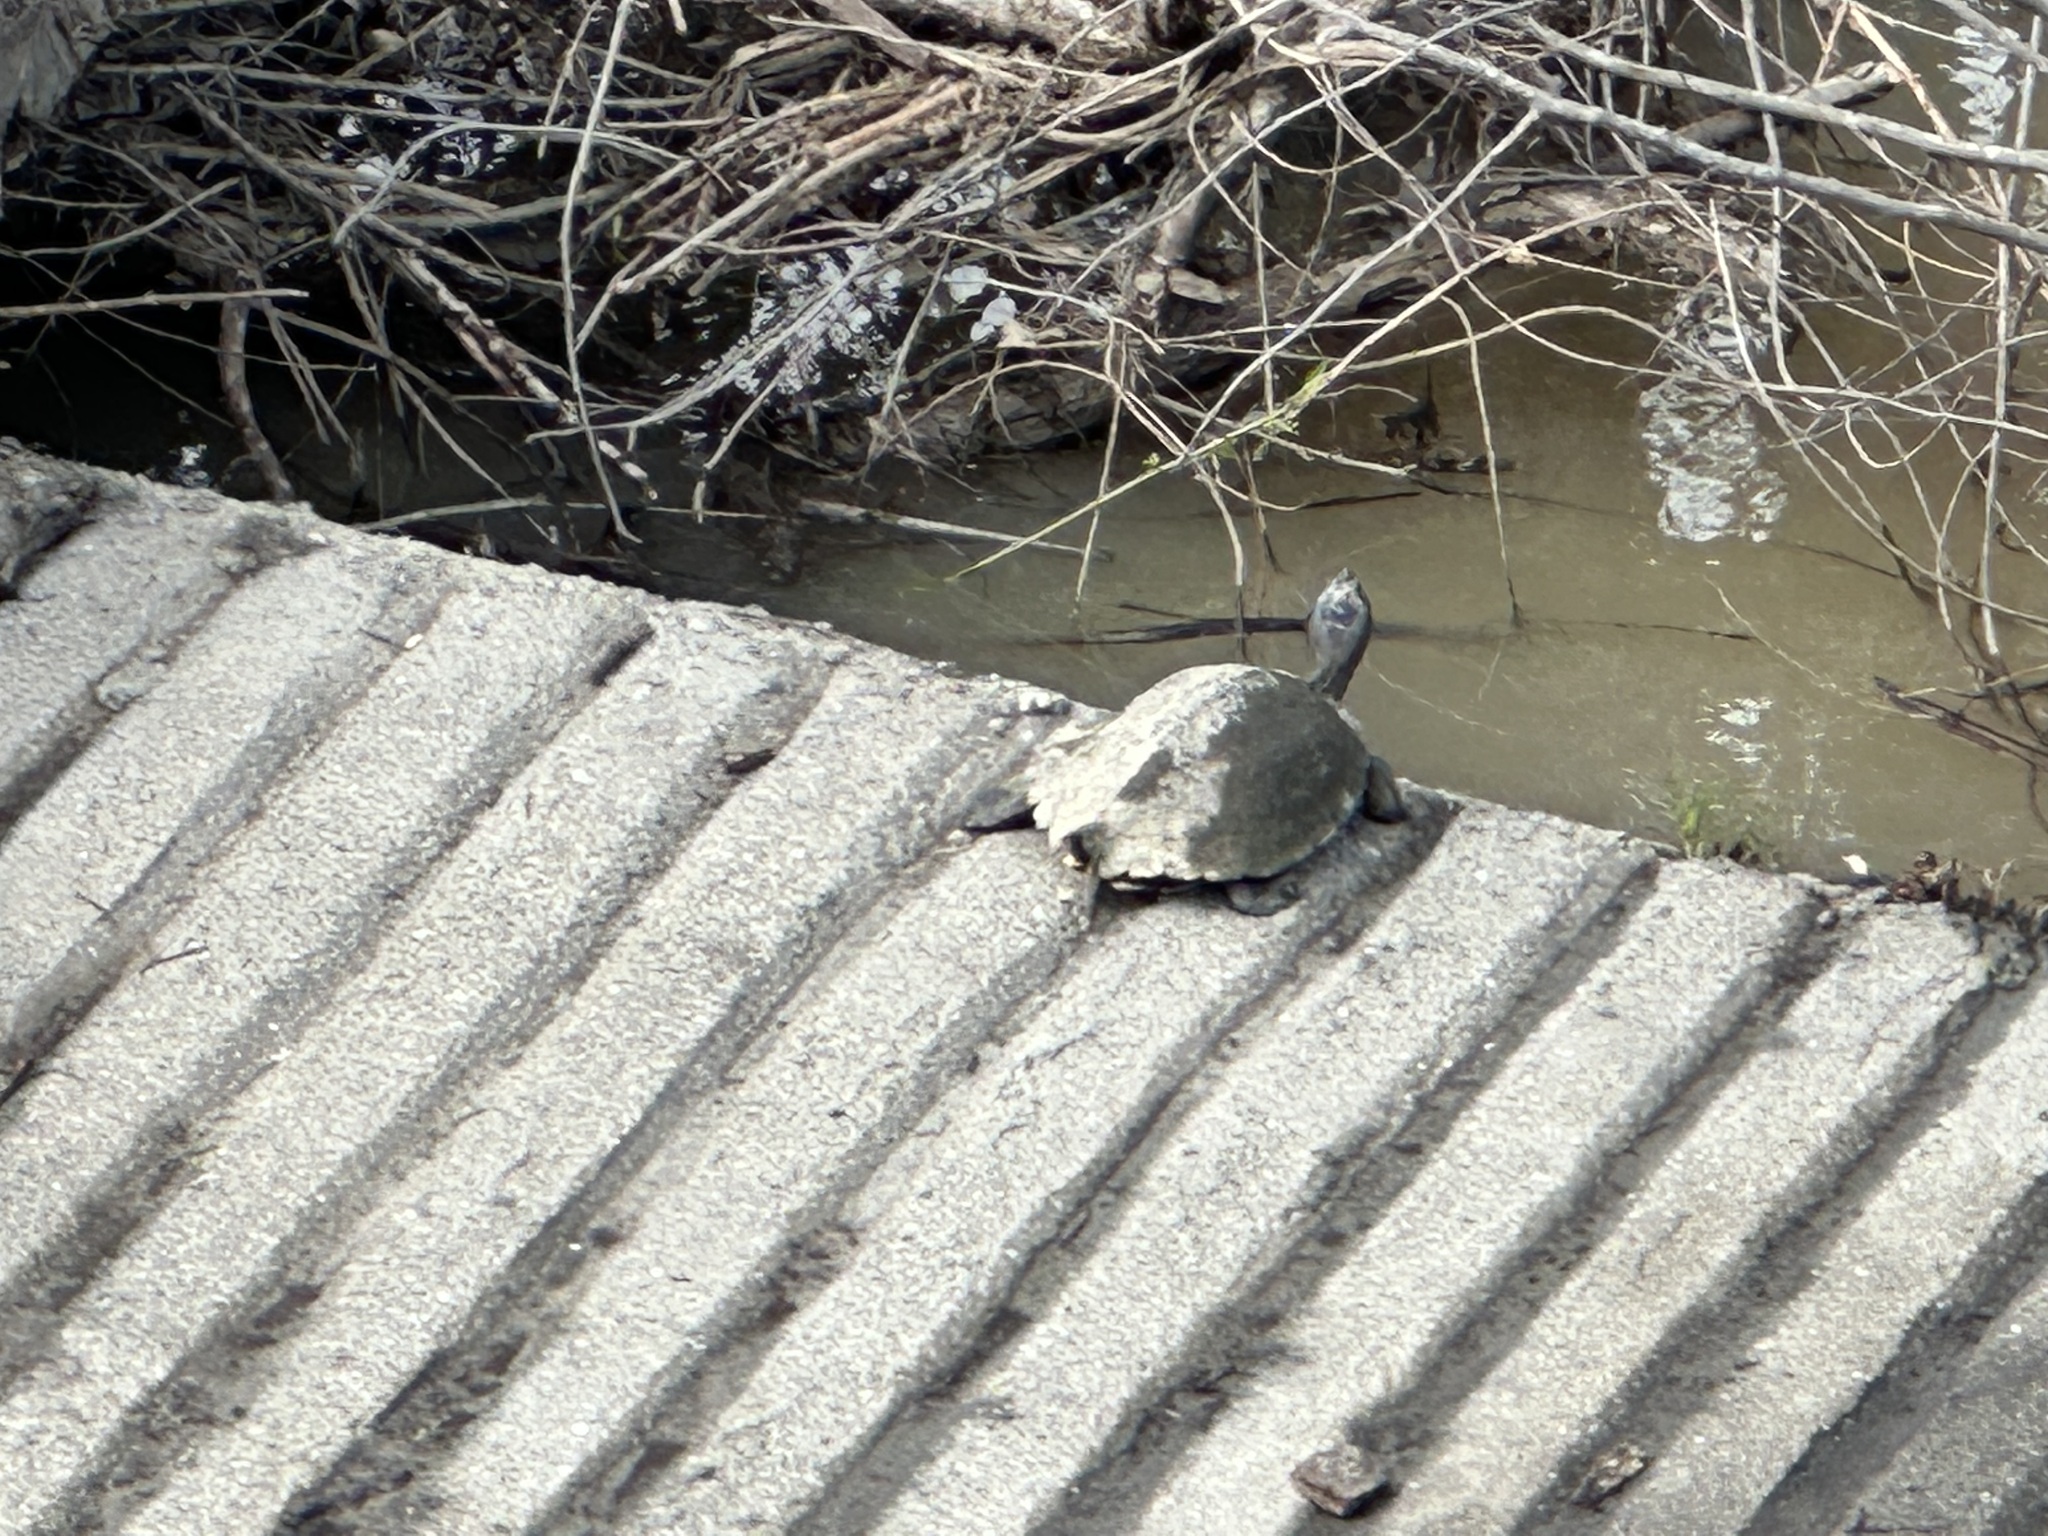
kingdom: Animalia
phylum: Chordata
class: Testudines
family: Emydidae
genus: Trachemys
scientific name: Trachemys scripta
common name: Slider
